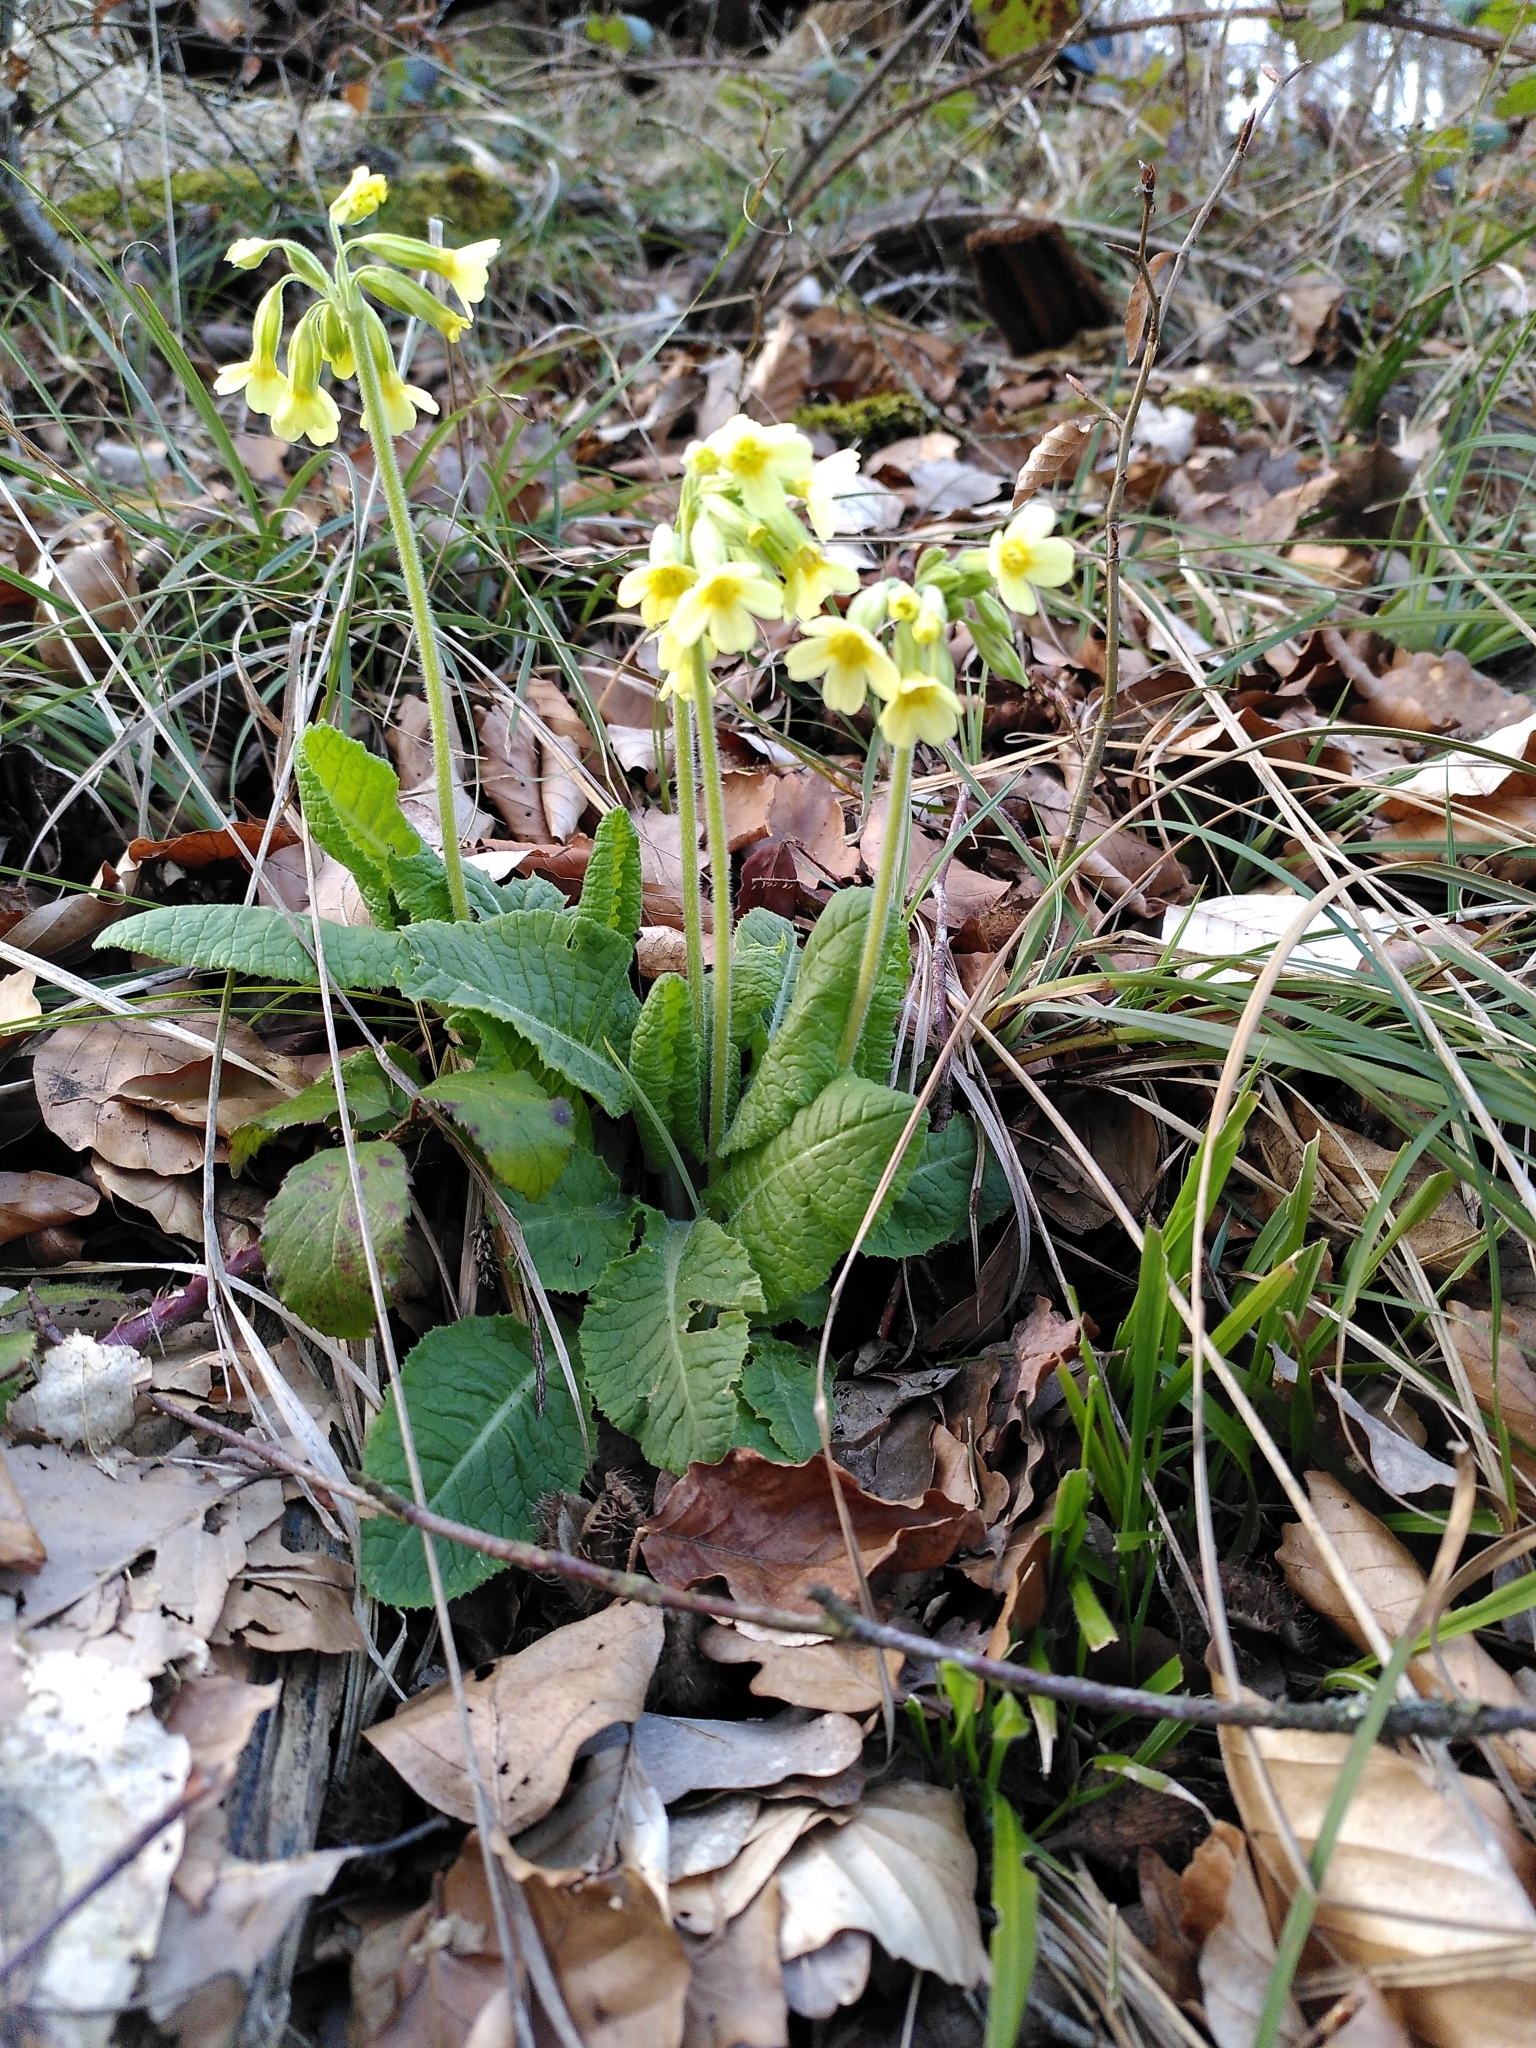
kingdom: Plantae
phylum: Tracheophyta
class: Magnoliopsida
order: Ericales
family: Primulaceae
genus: Primula
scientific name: Primula elatior
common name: Oxlip
